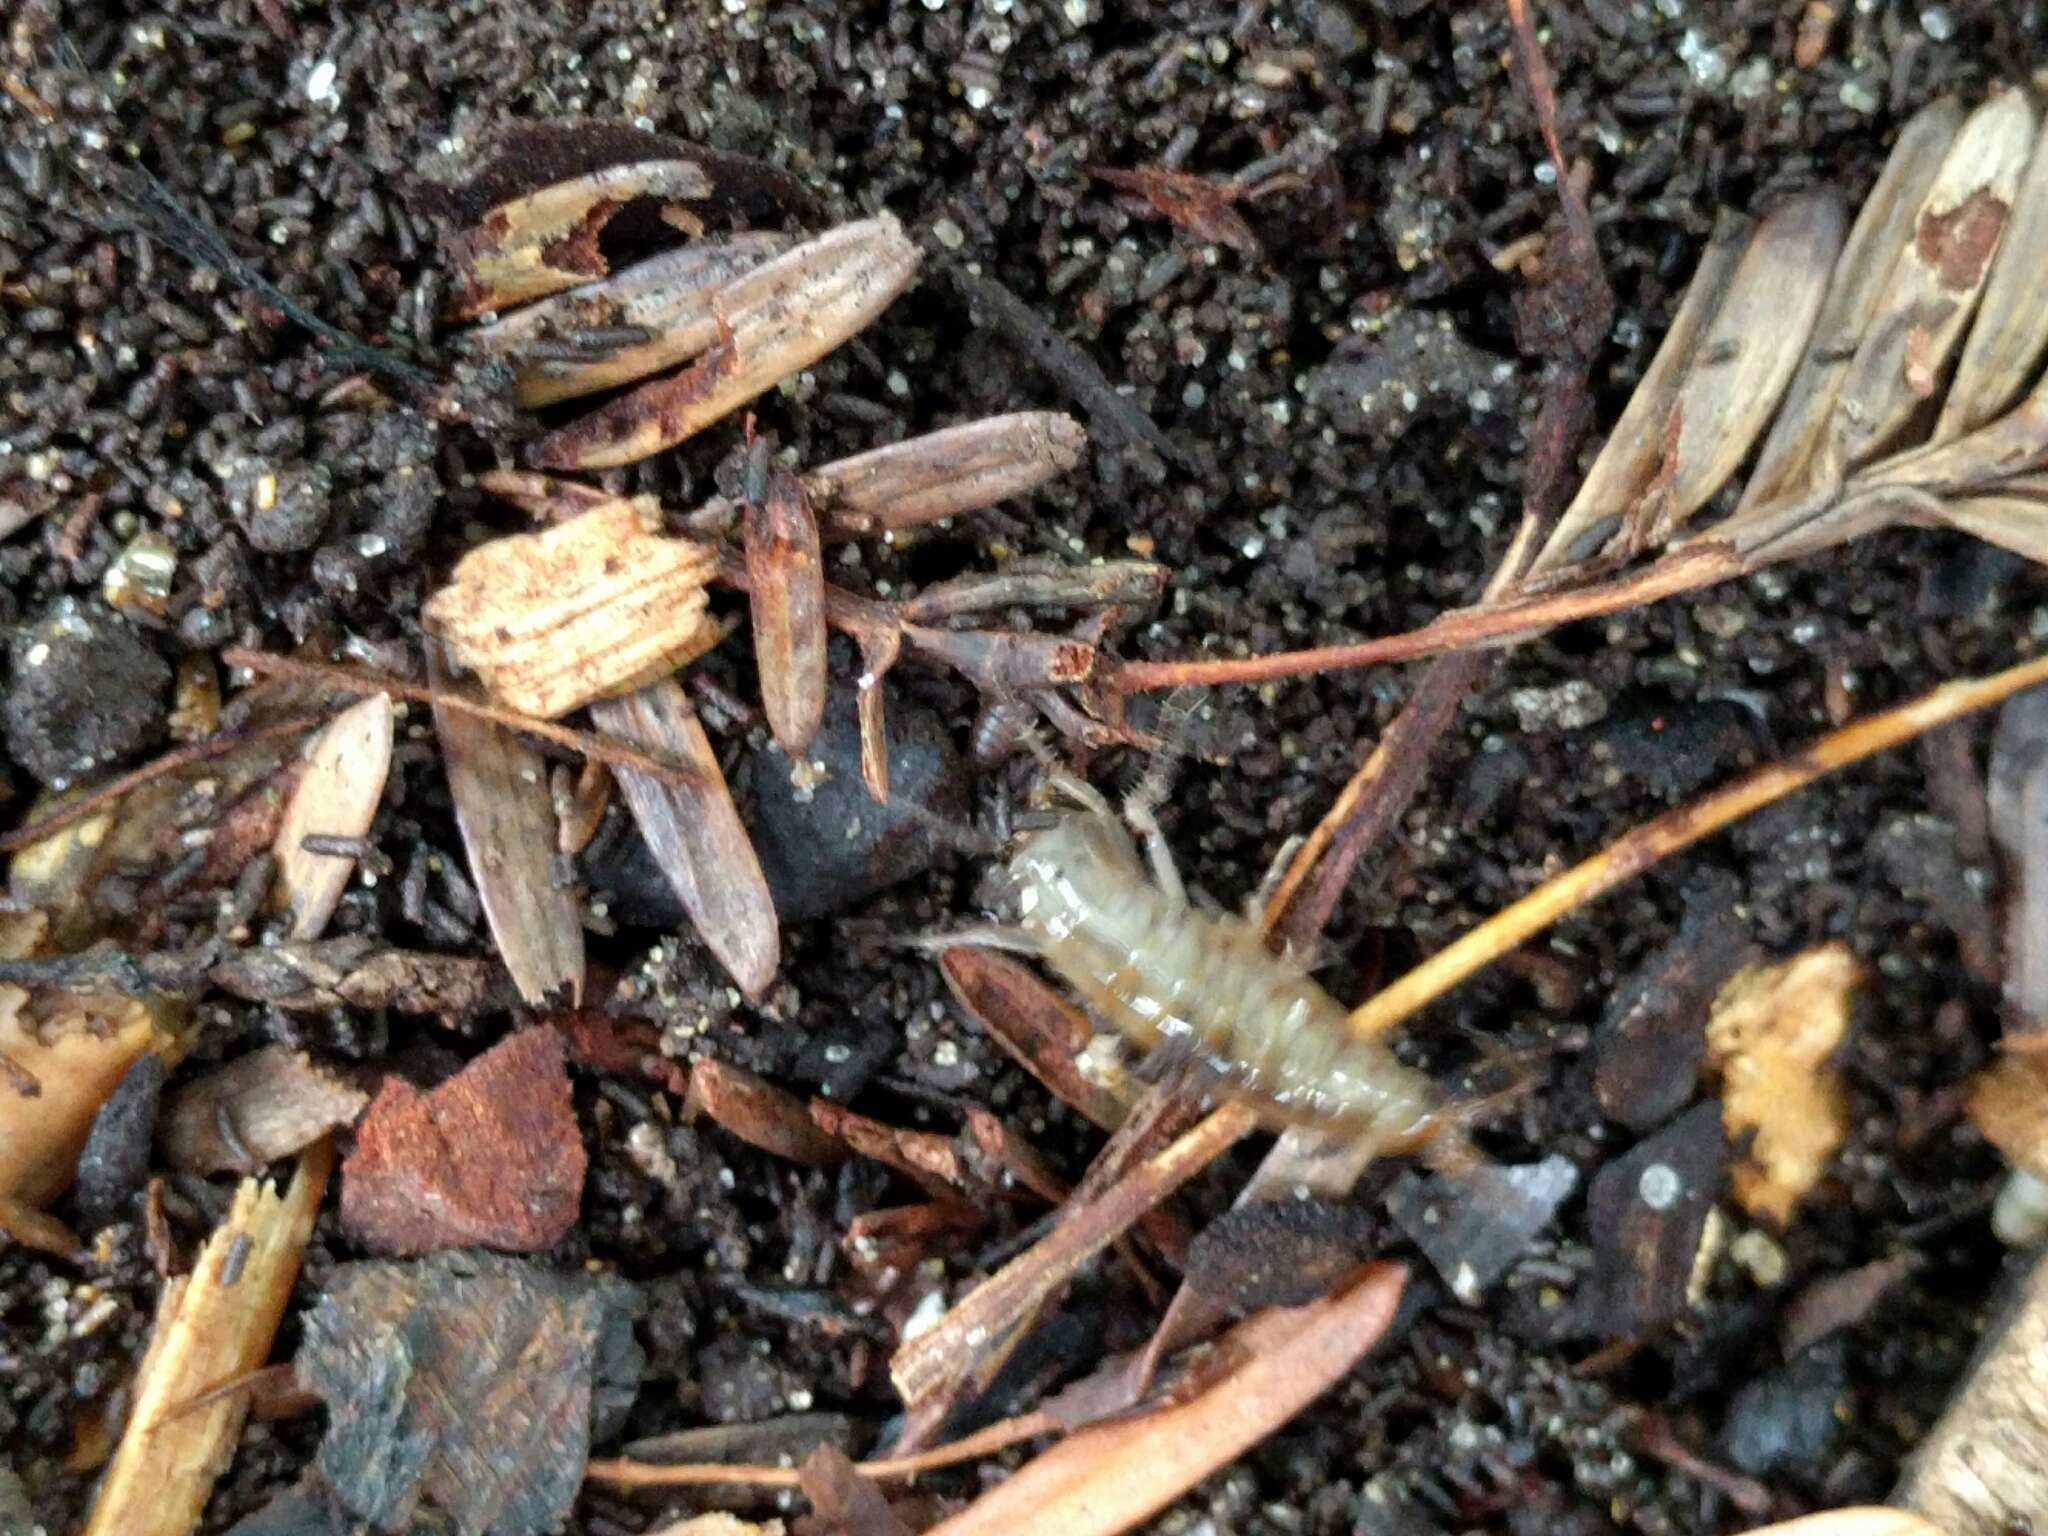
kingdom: Animalia
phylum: Arthropoda
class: Malacostraca
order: Amphipoda
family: Arcitalitridae
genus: Arcitalitrus
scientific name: Arcitalitrus sylvaticus
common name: Gammarid amphipod
